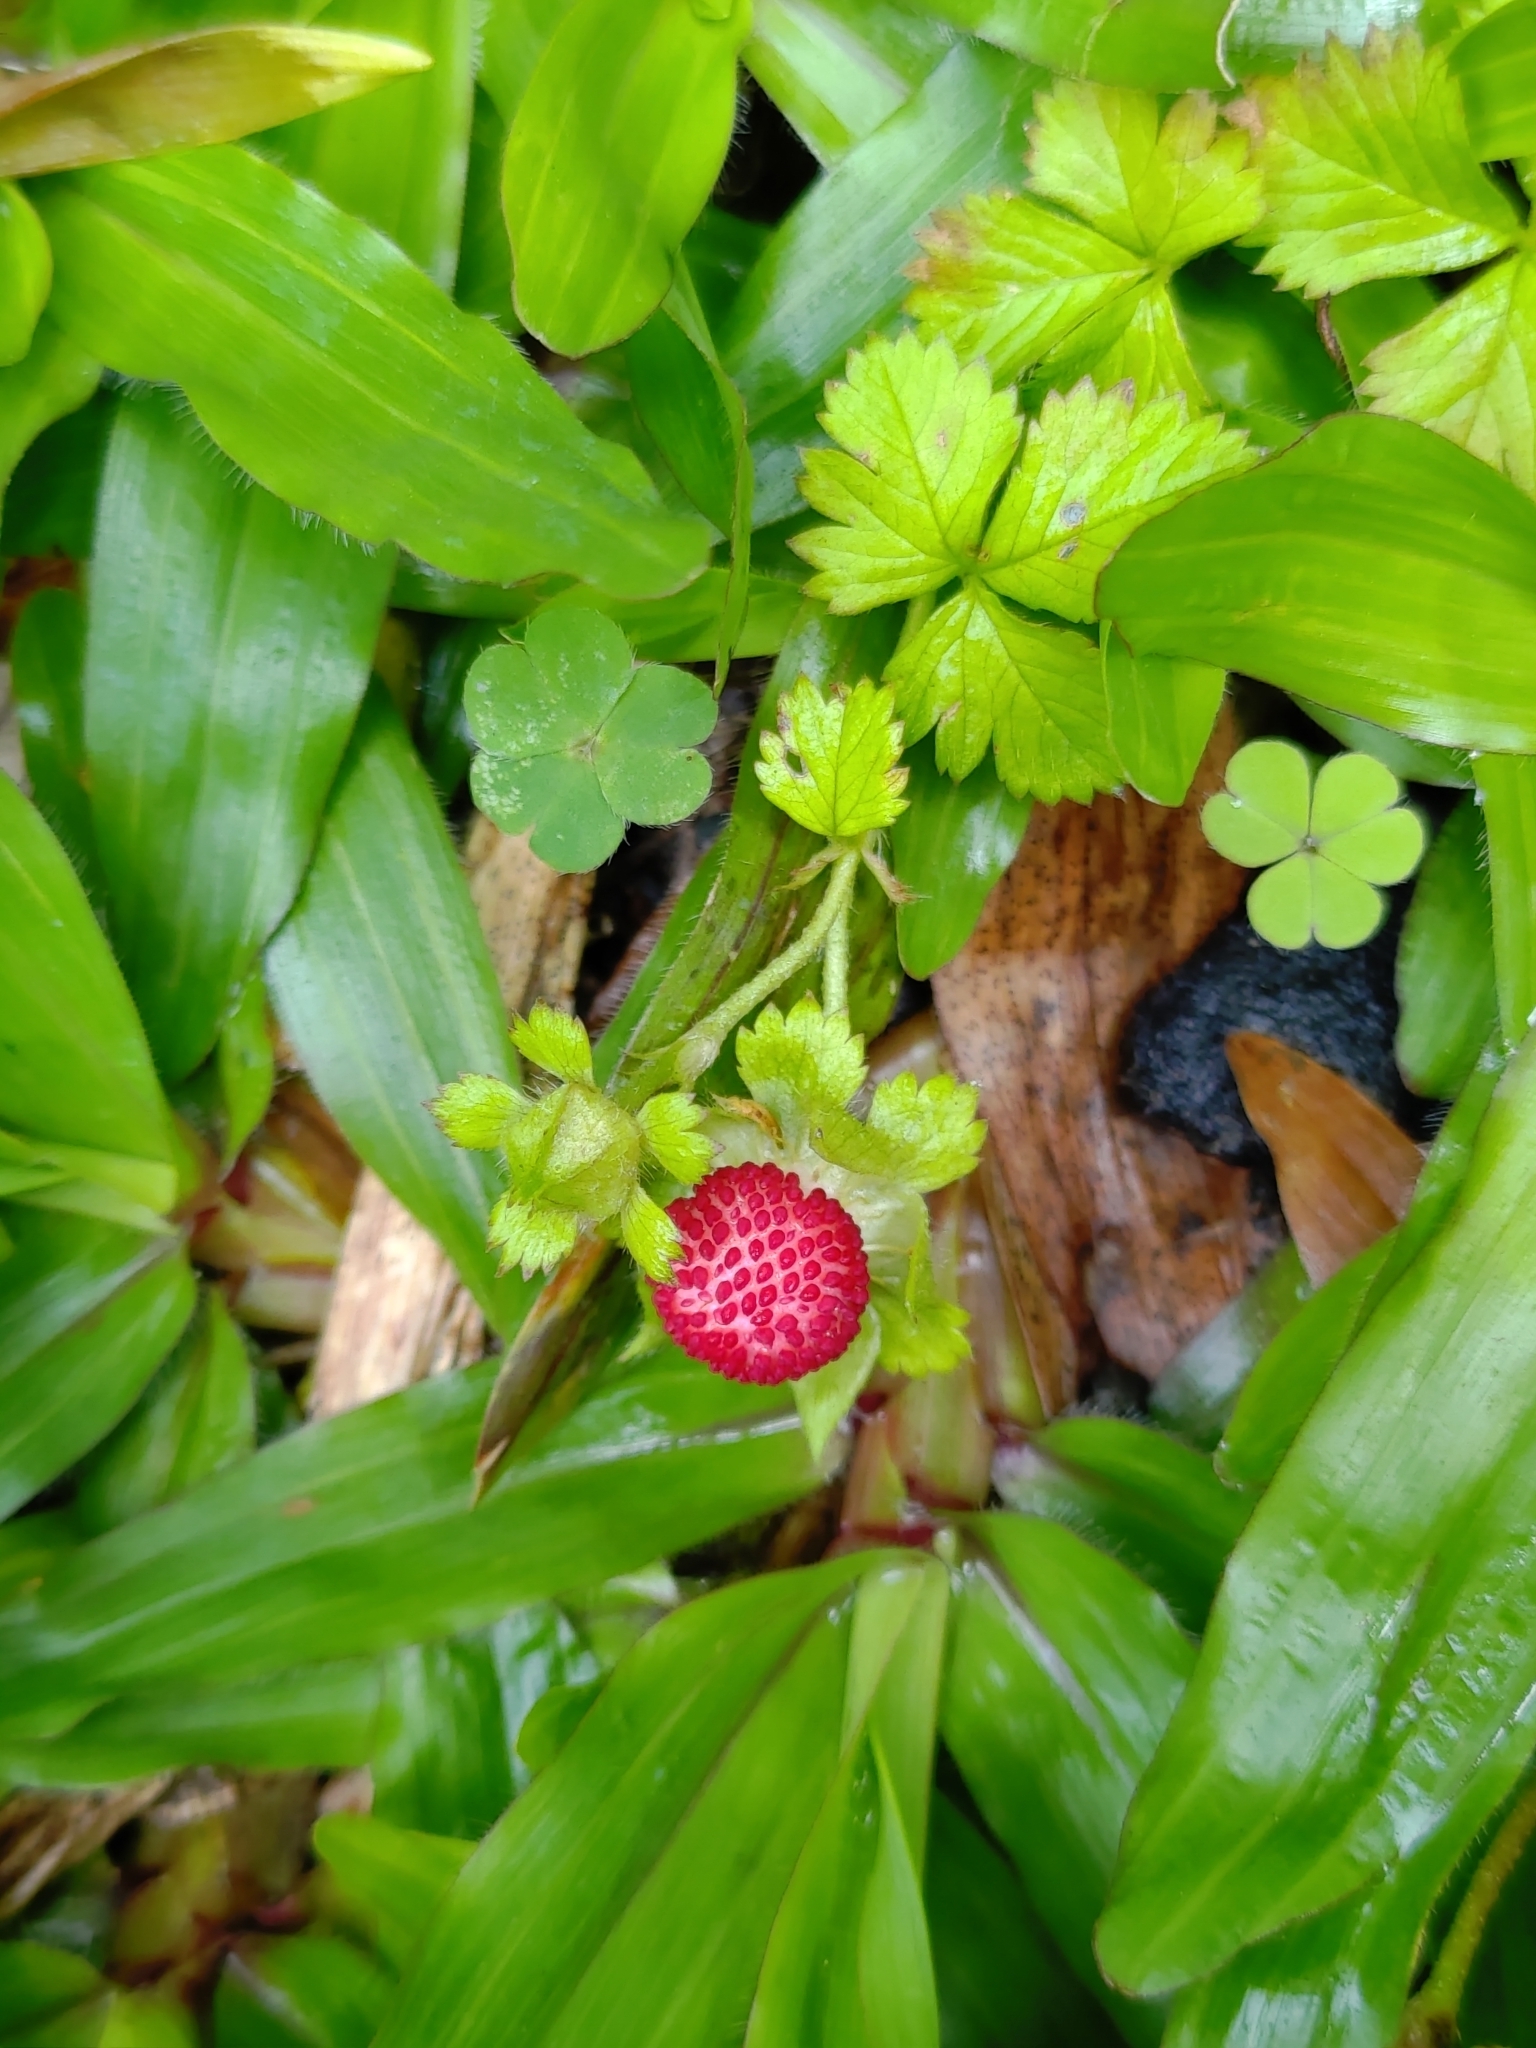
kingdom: Plantae
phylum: Tracheophyta
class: Magnoliopsida
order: Rosales
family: Rosaceae
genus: Potentilla
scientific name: Potentilla wallichiana
